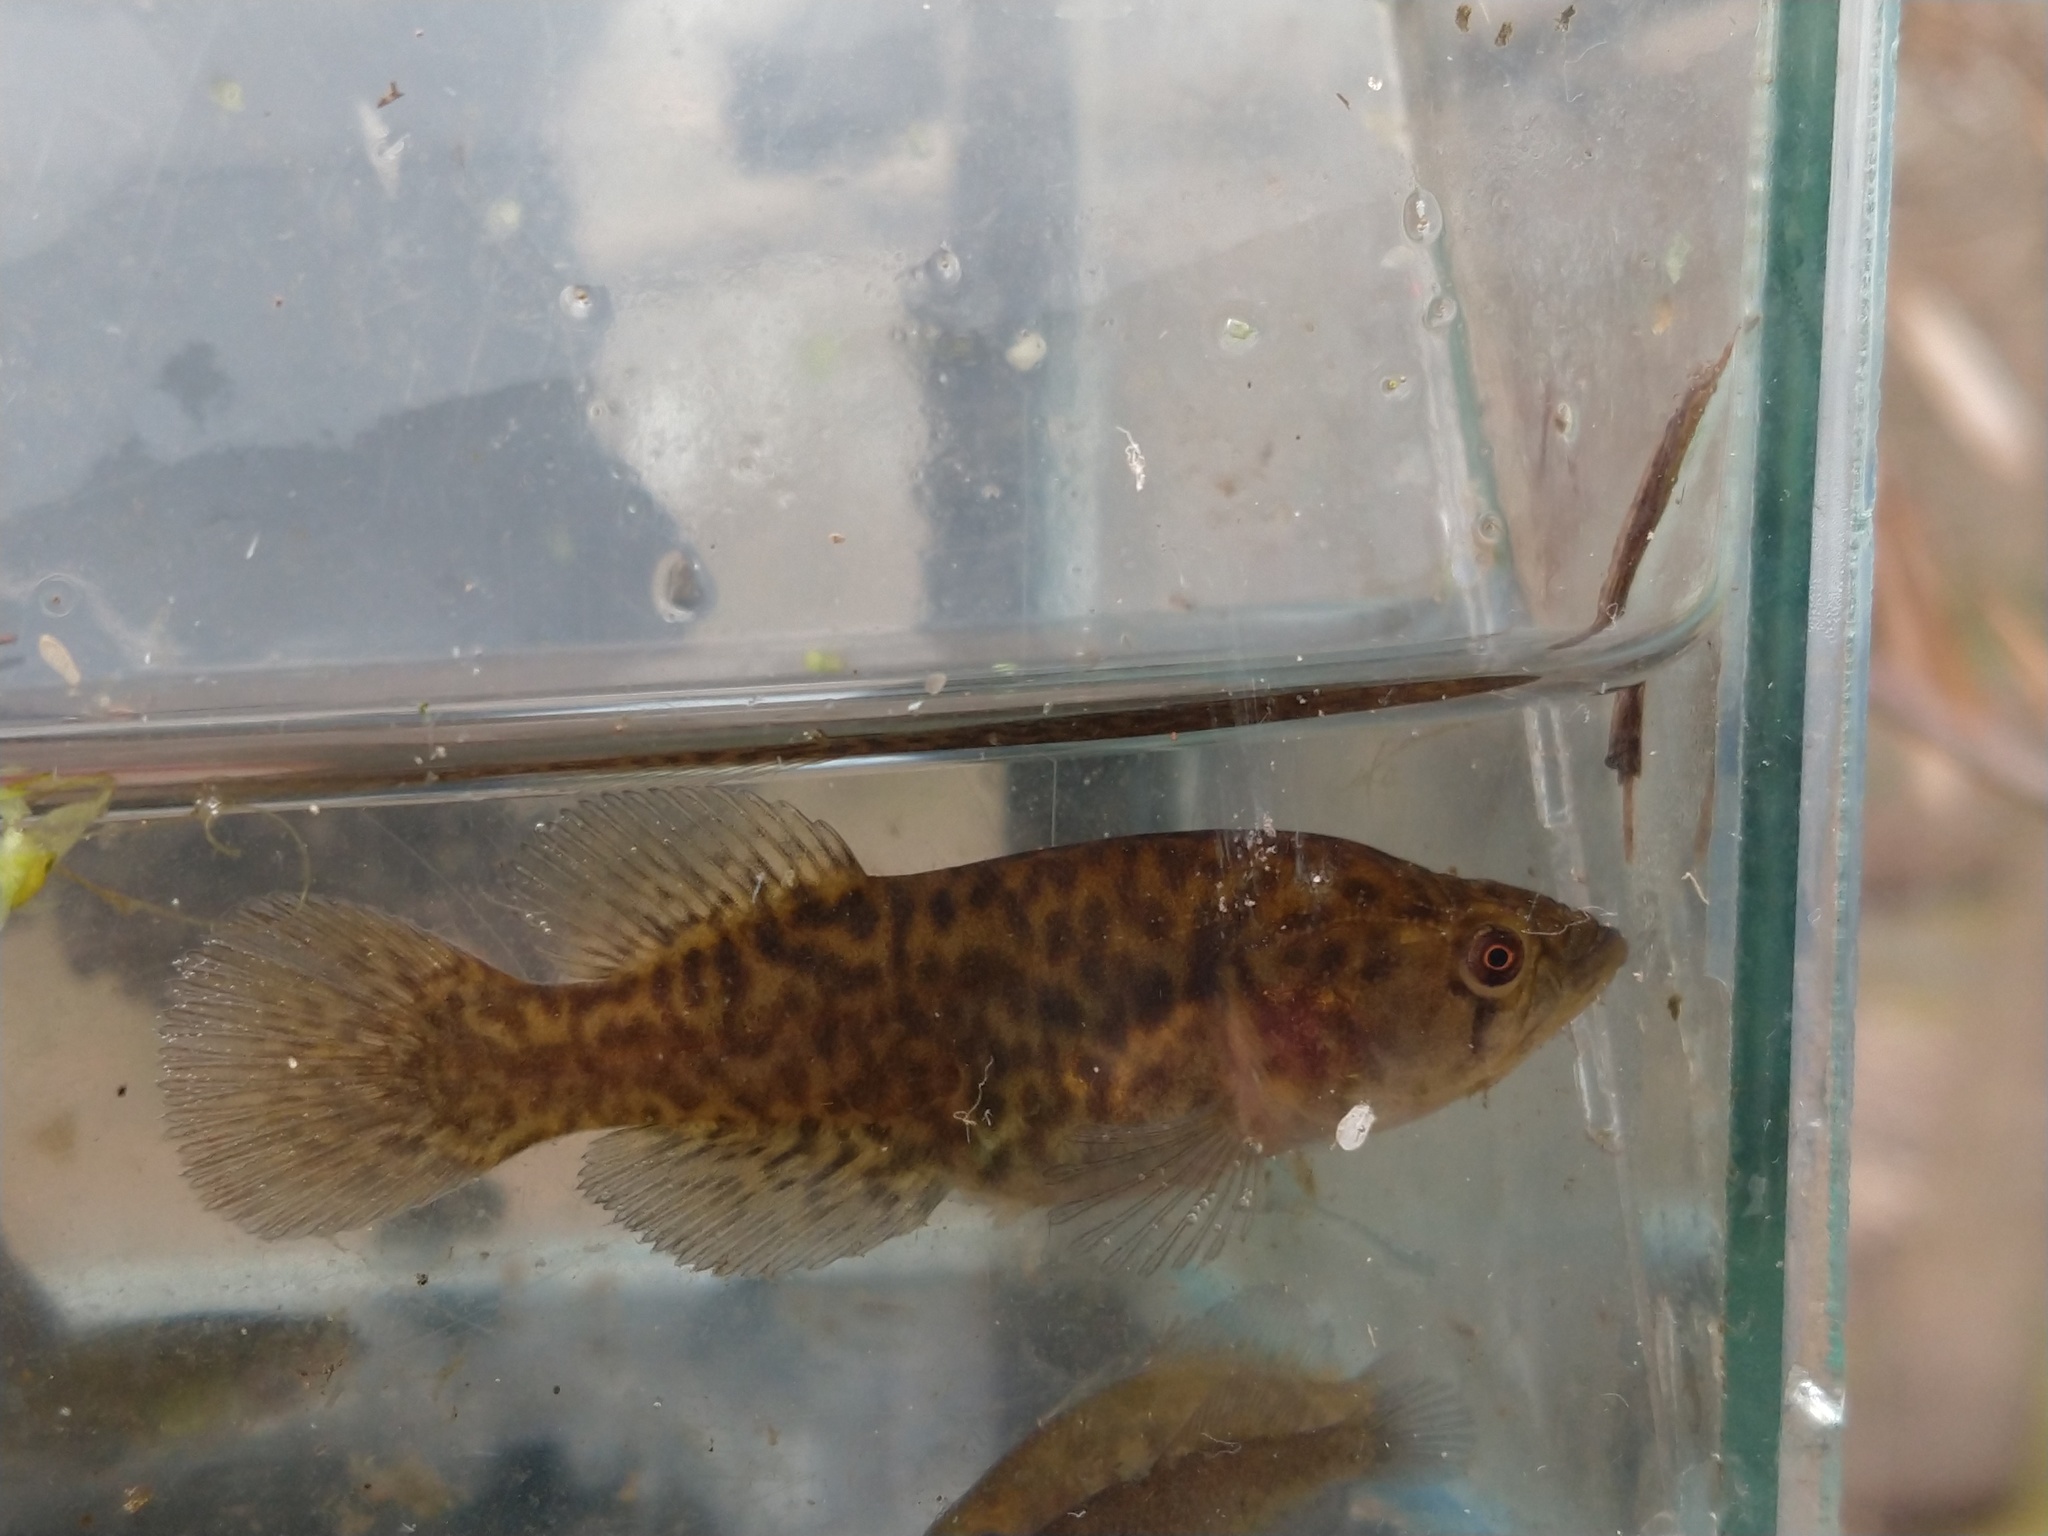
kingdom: Animalia
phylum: Chordata
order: Cyprinodontiformes
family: Rivulidae
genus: Austrolebias
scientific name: Austrolebias elongatus
